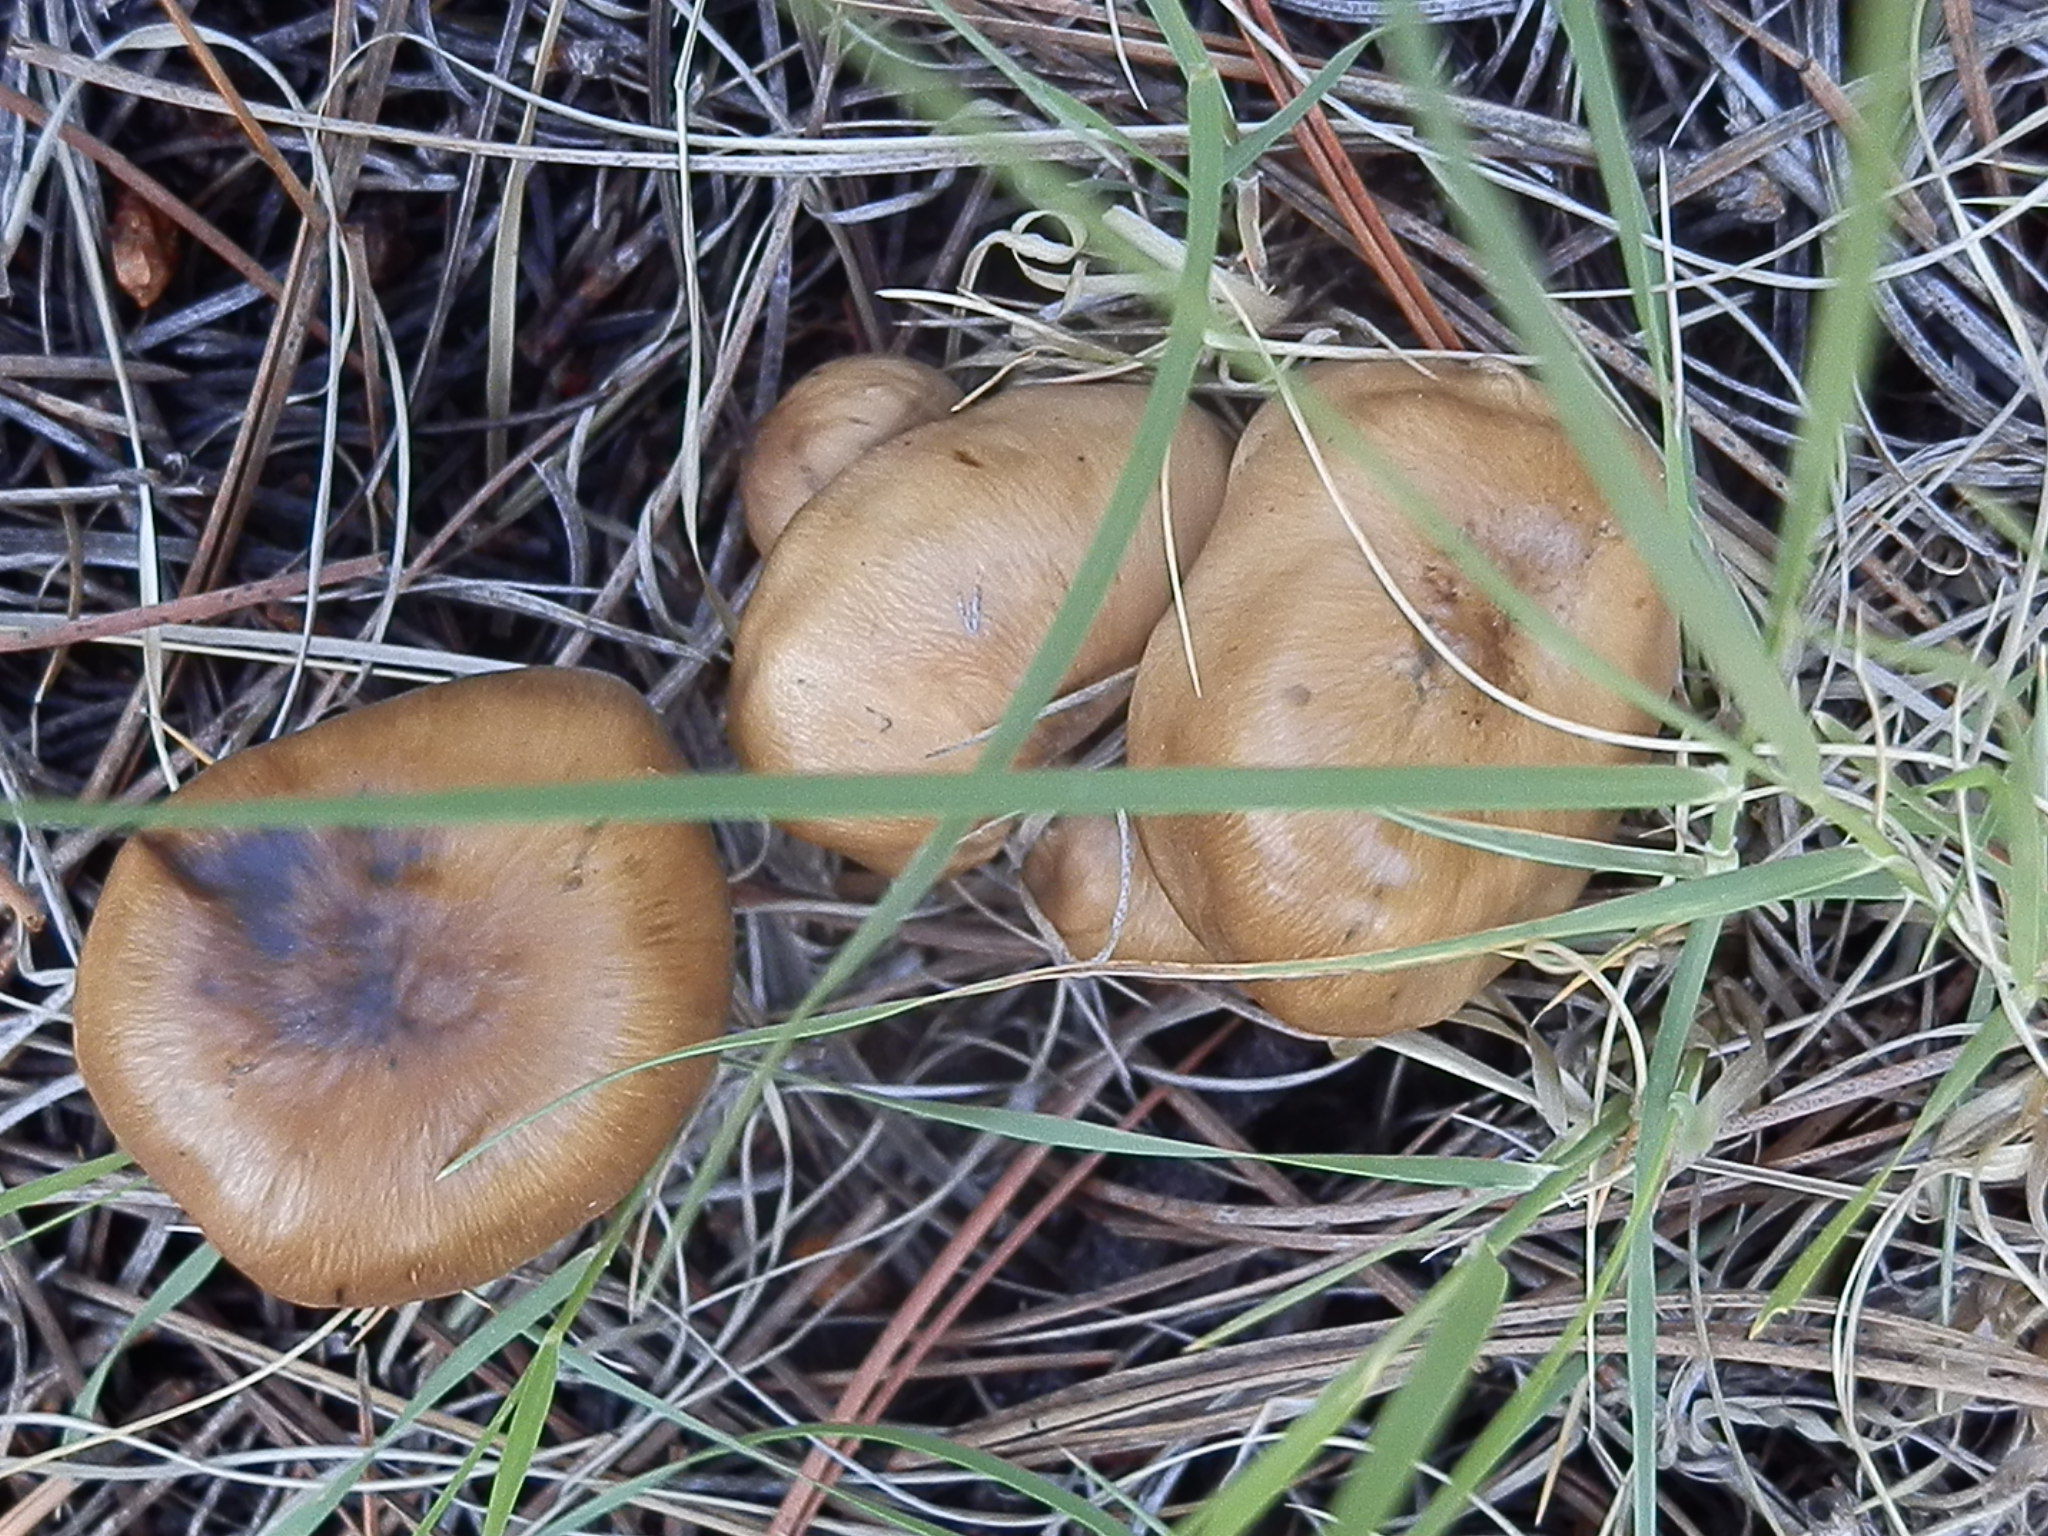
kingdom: Fungi
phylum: Basidiomycota
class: Agaricomycetes
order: Agaricales
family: Lyophyllaceae
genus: Lyophyllum
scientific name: Lyophyllum infumatum
